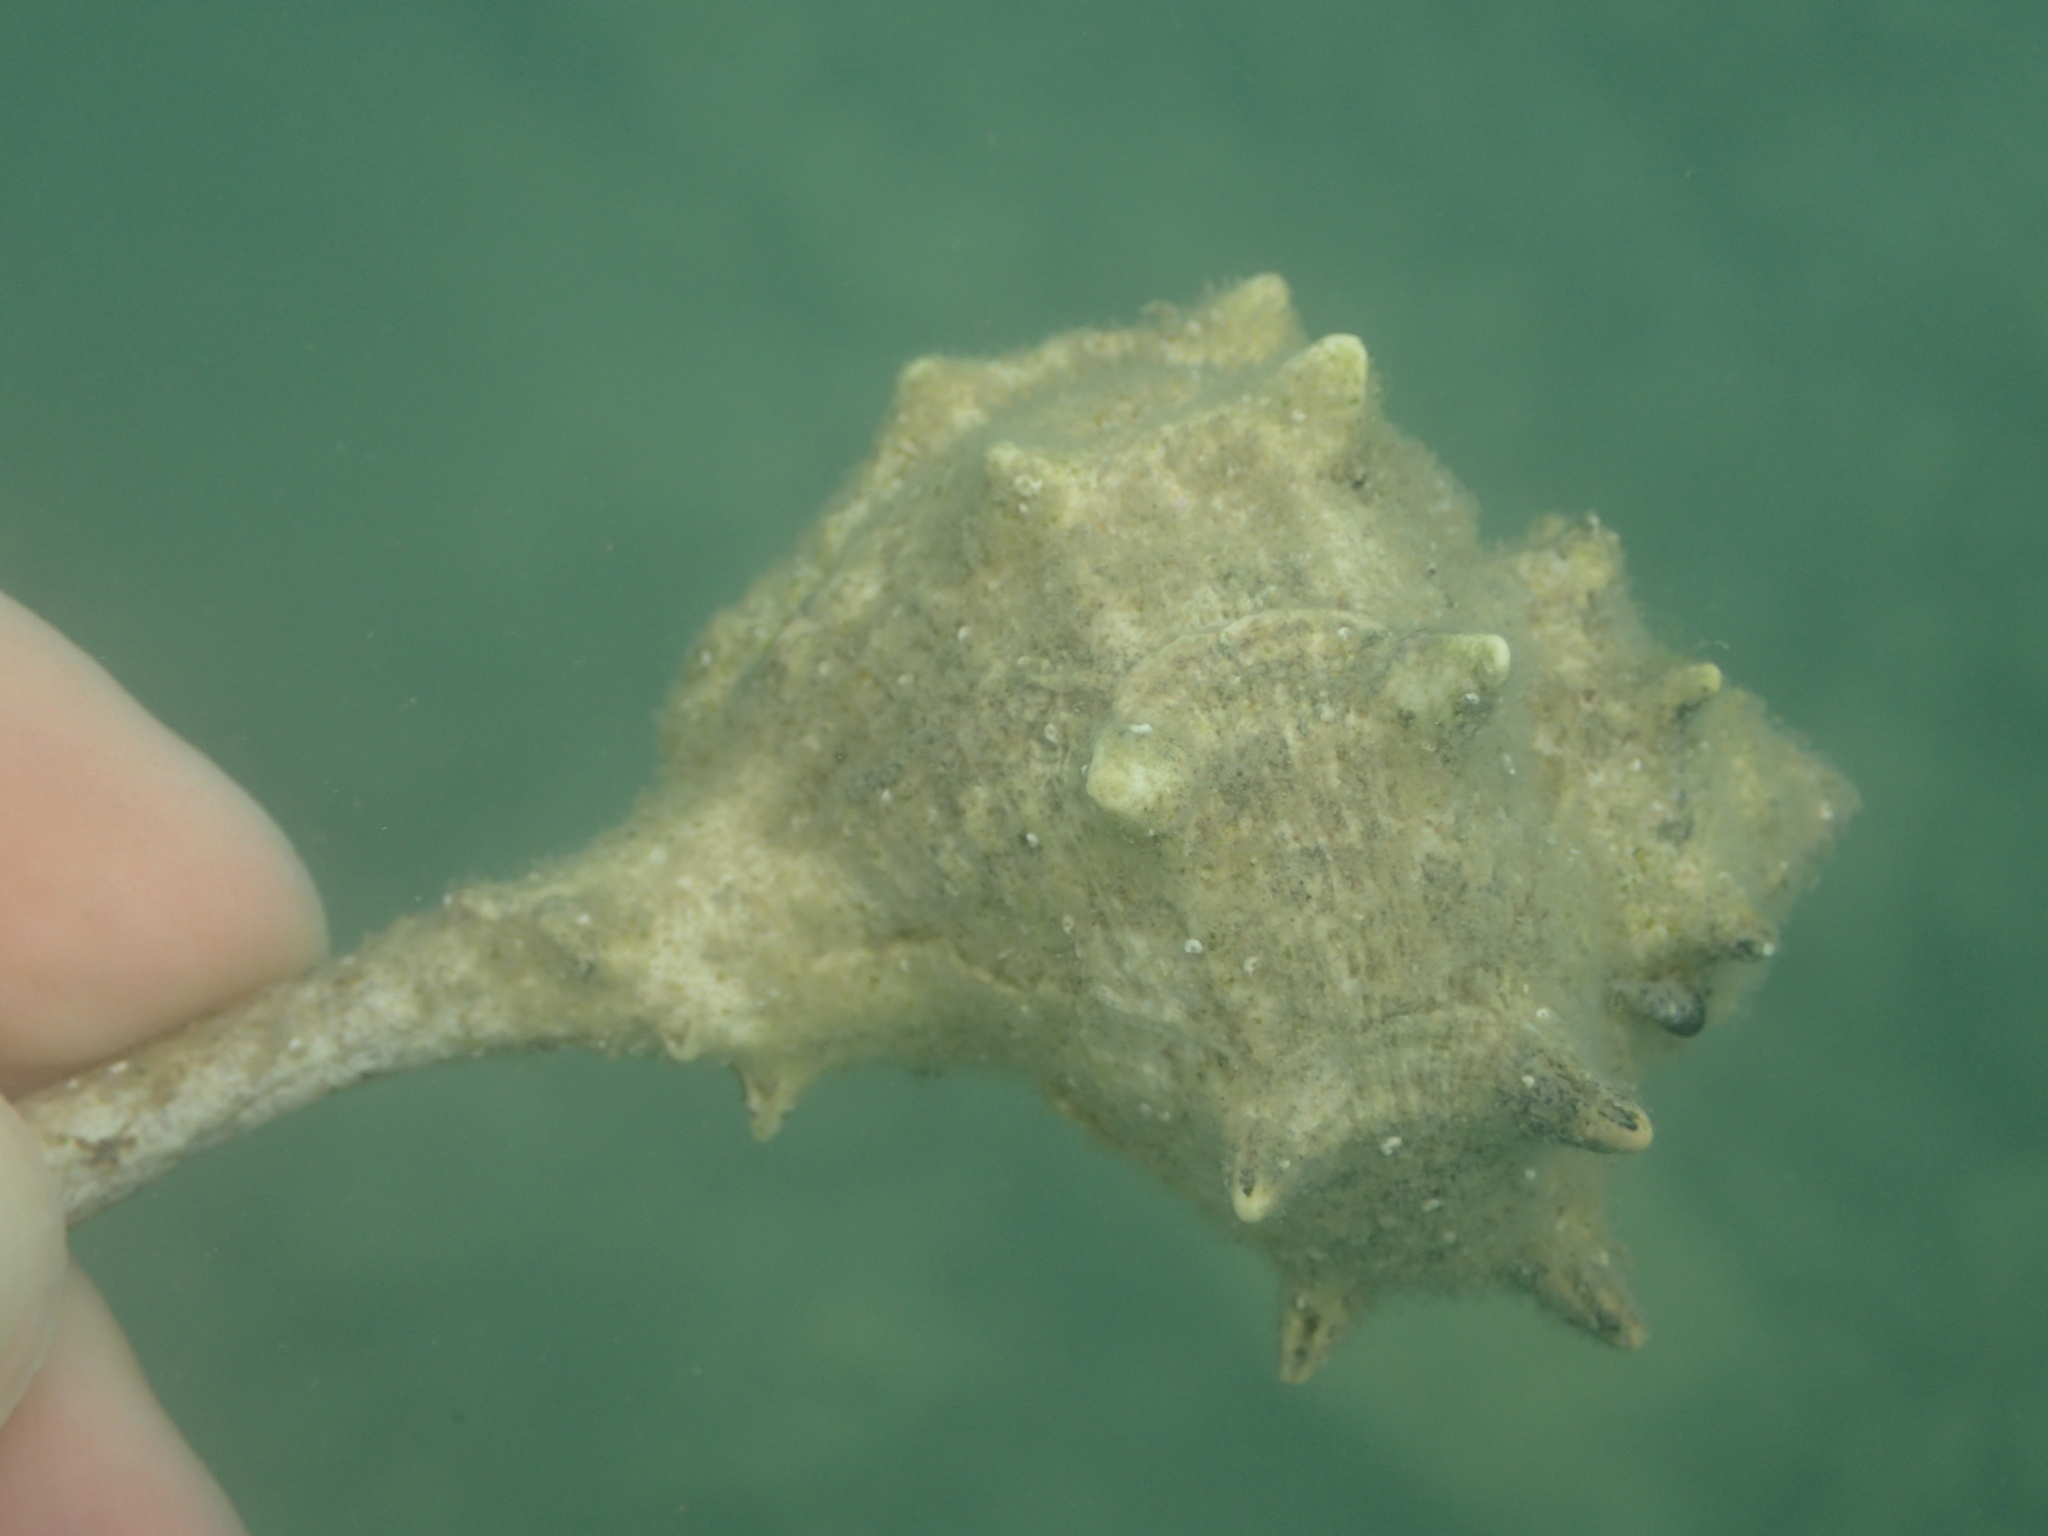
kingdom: Animalia
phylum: Arthropoda
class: Malacostraca
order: Decapoda
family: Diogenidae
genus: Clibanarius
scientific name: Clibanarius erythropus
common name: Hermit crab
